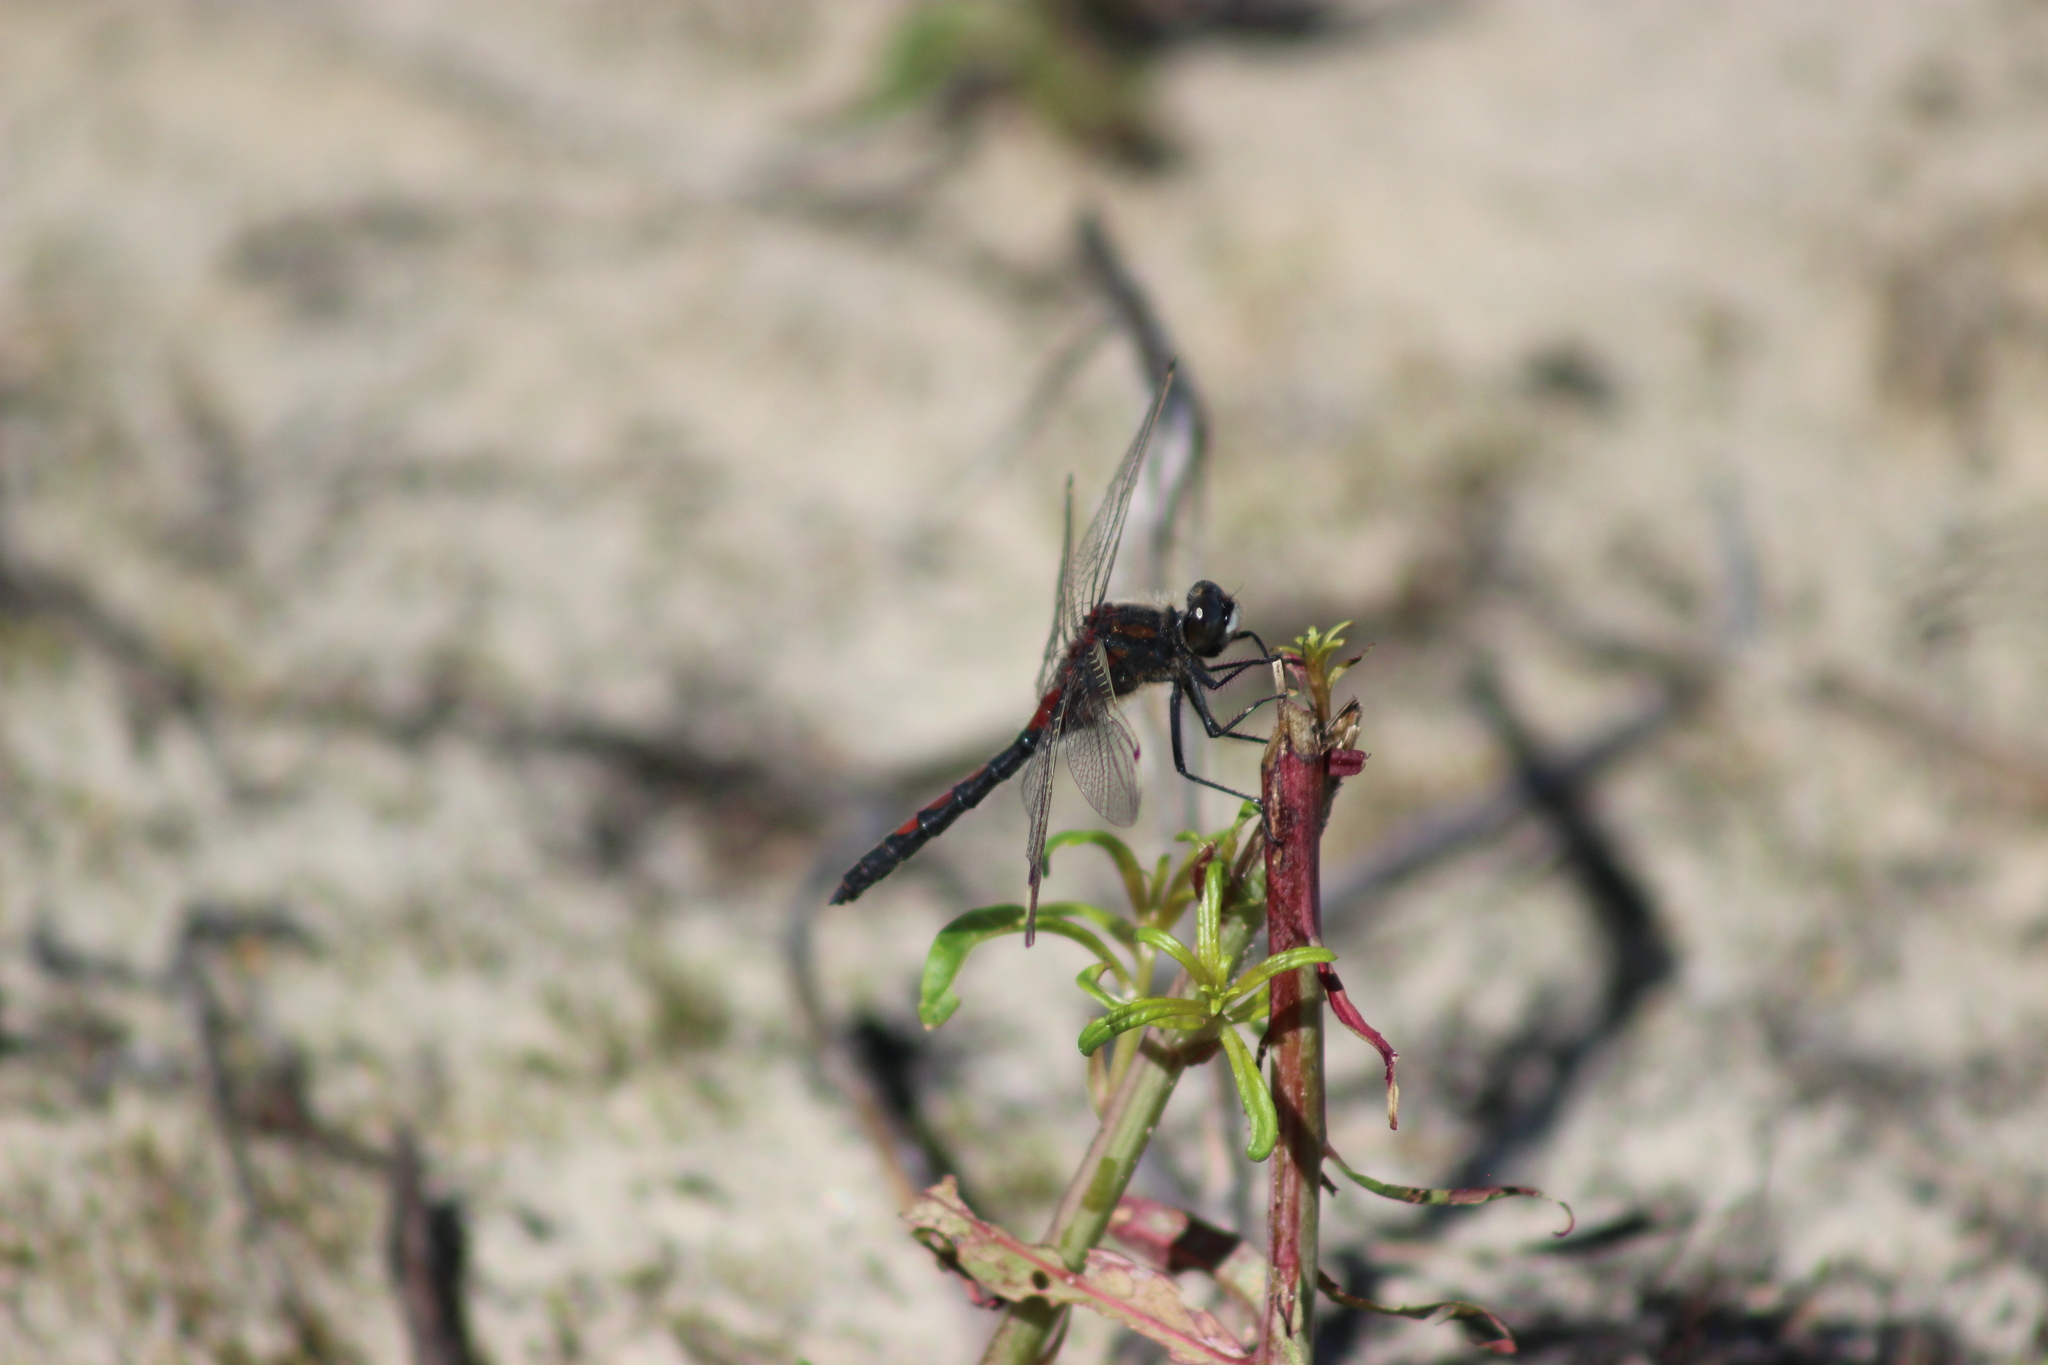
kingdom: Animalia
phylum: Arthropoda
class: Insecta
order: Odonata
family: Libellulidae
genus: Leucorrhinia
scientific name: Leucorrhinia rubicunda
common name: Ruby whiteface
